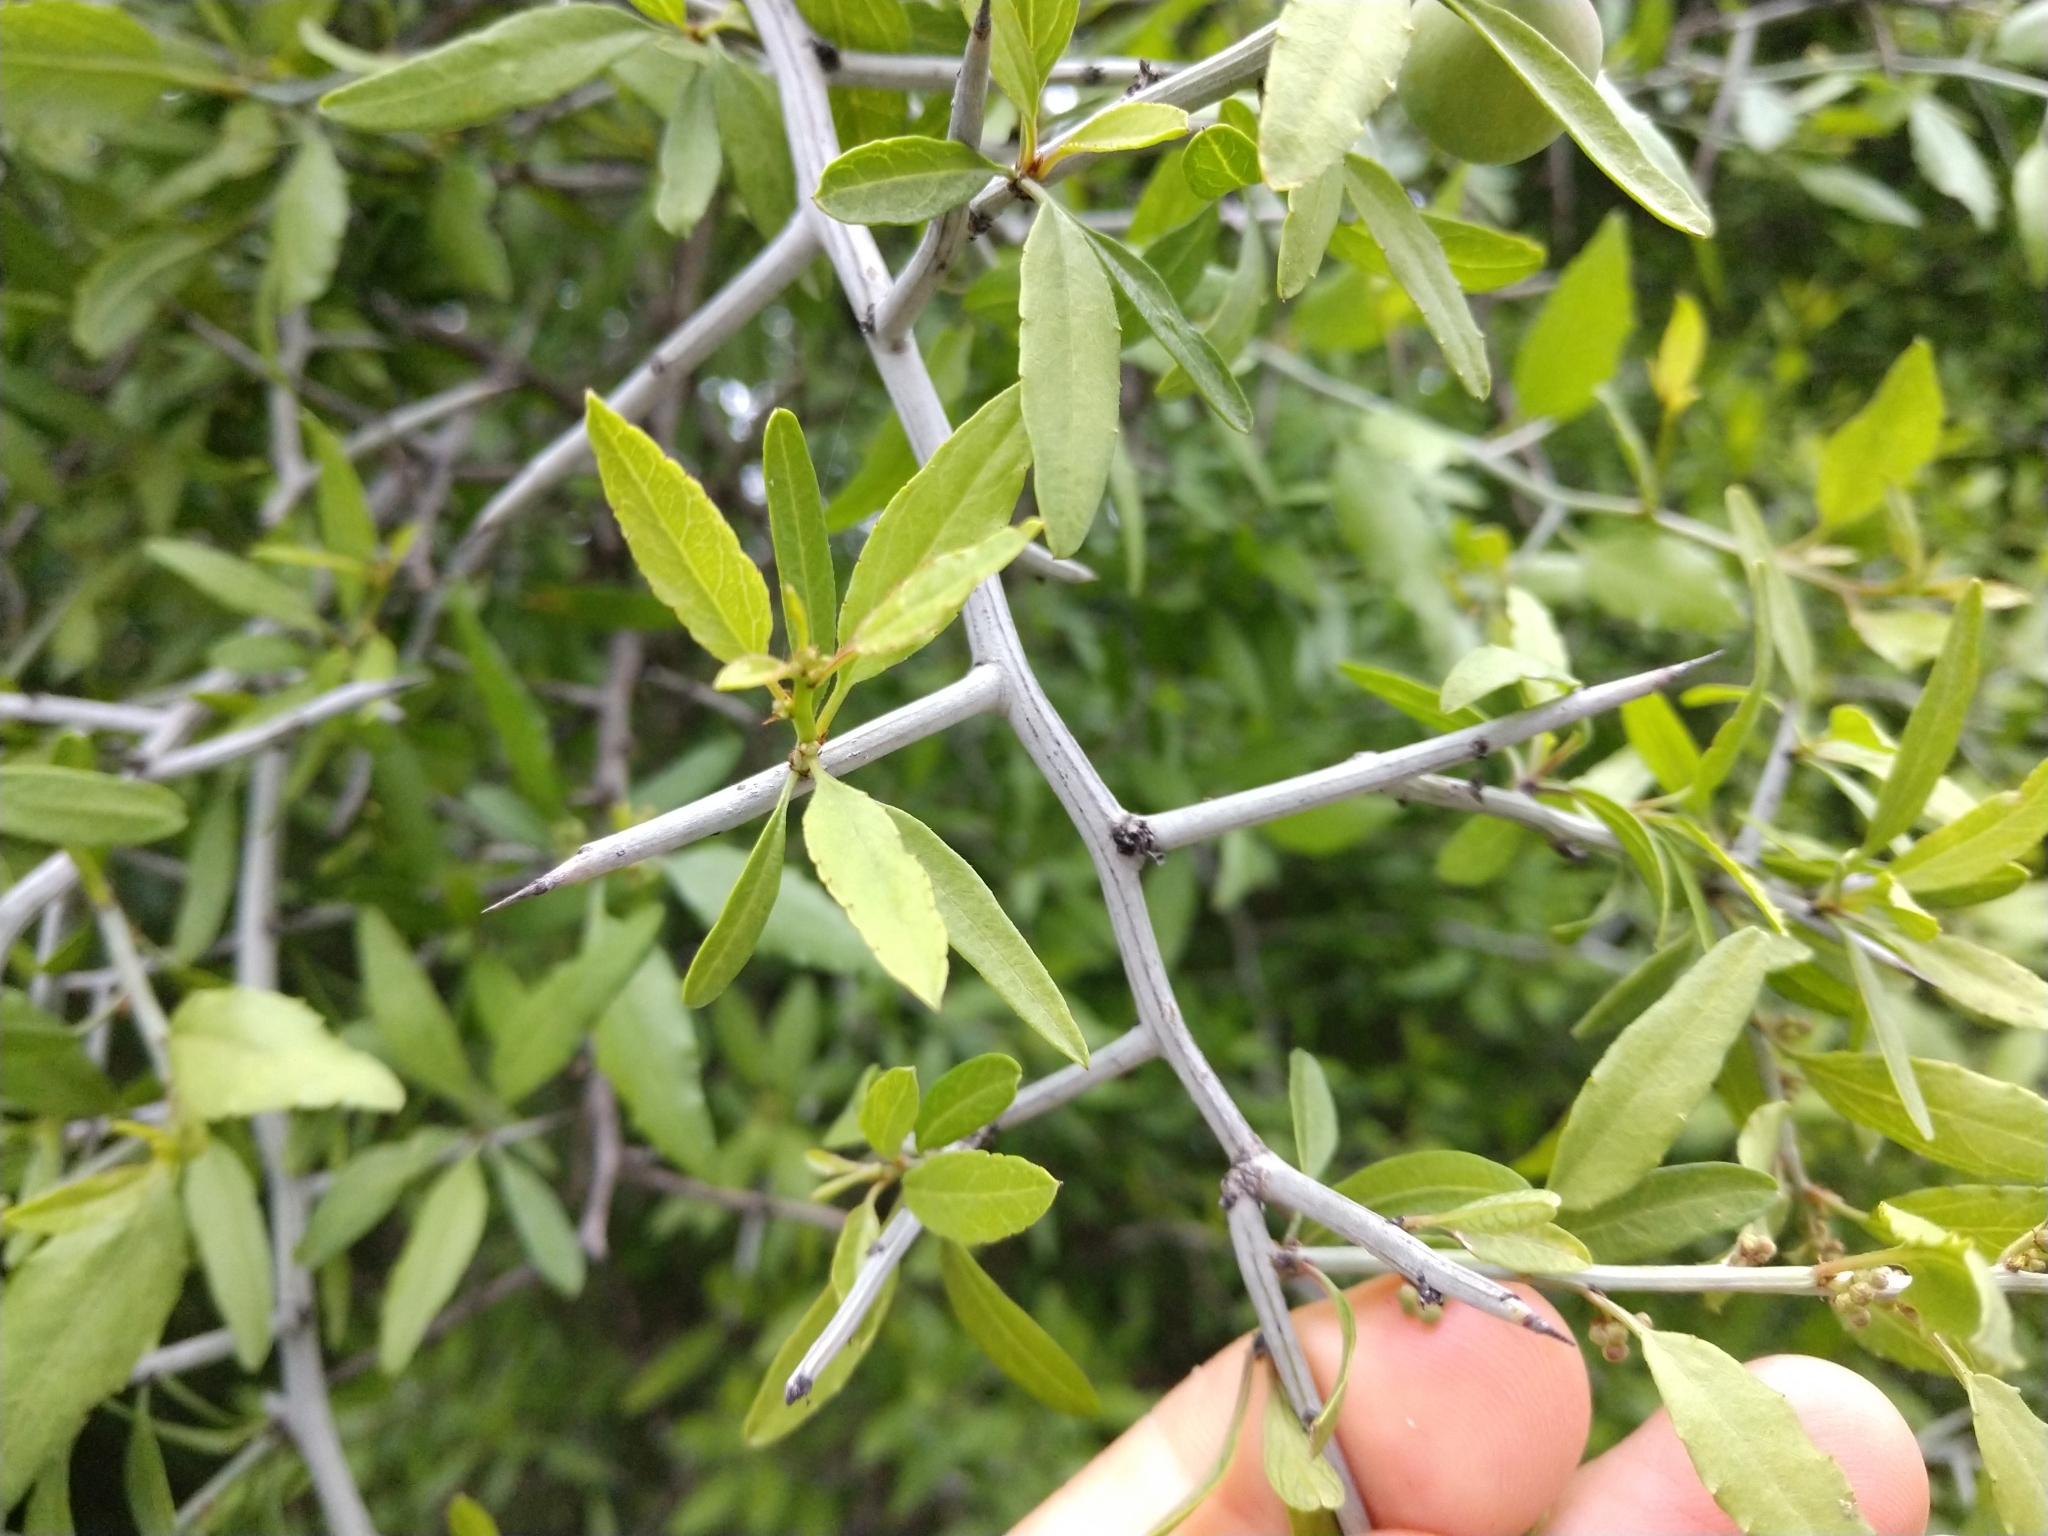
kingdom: Plantae
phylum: Tracheophyta
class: Magnoliopsida
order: Rosales
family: Rhamnaceae
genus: Sarcomphalus
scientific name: Sarcomphalus obtusifolius
